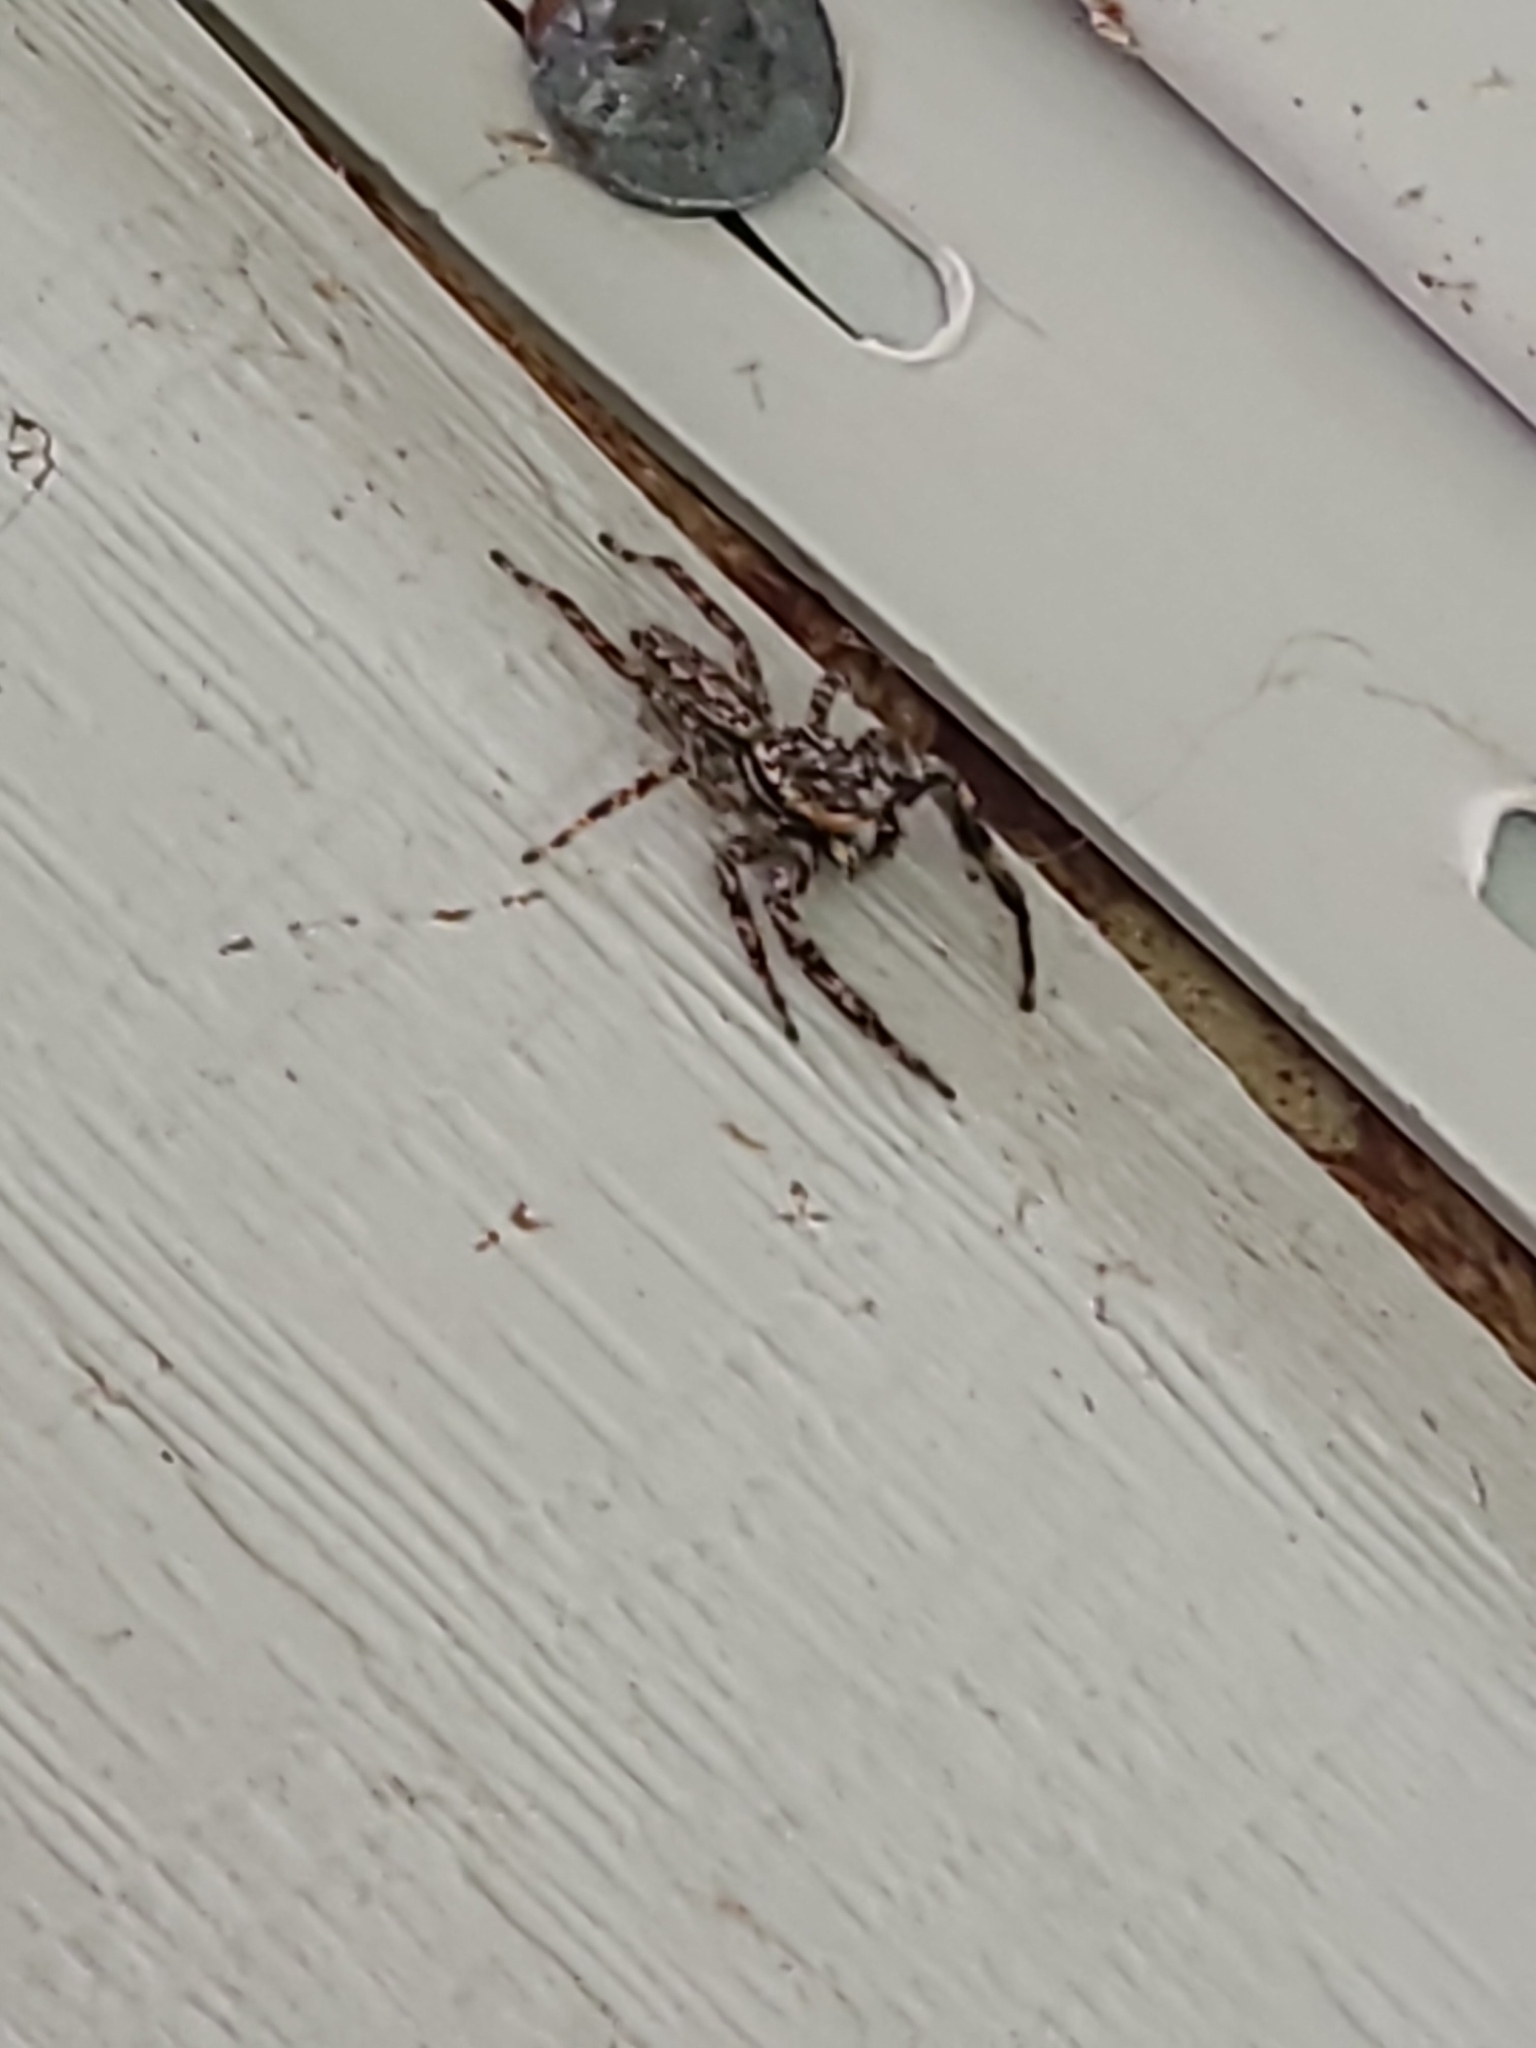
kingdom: Animalia
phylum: Arthropoda
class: Arachnida
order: Araneae
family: Salticidae
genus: Platycryptus
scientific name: Platycryptus undatus
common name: Tan jumping spider
